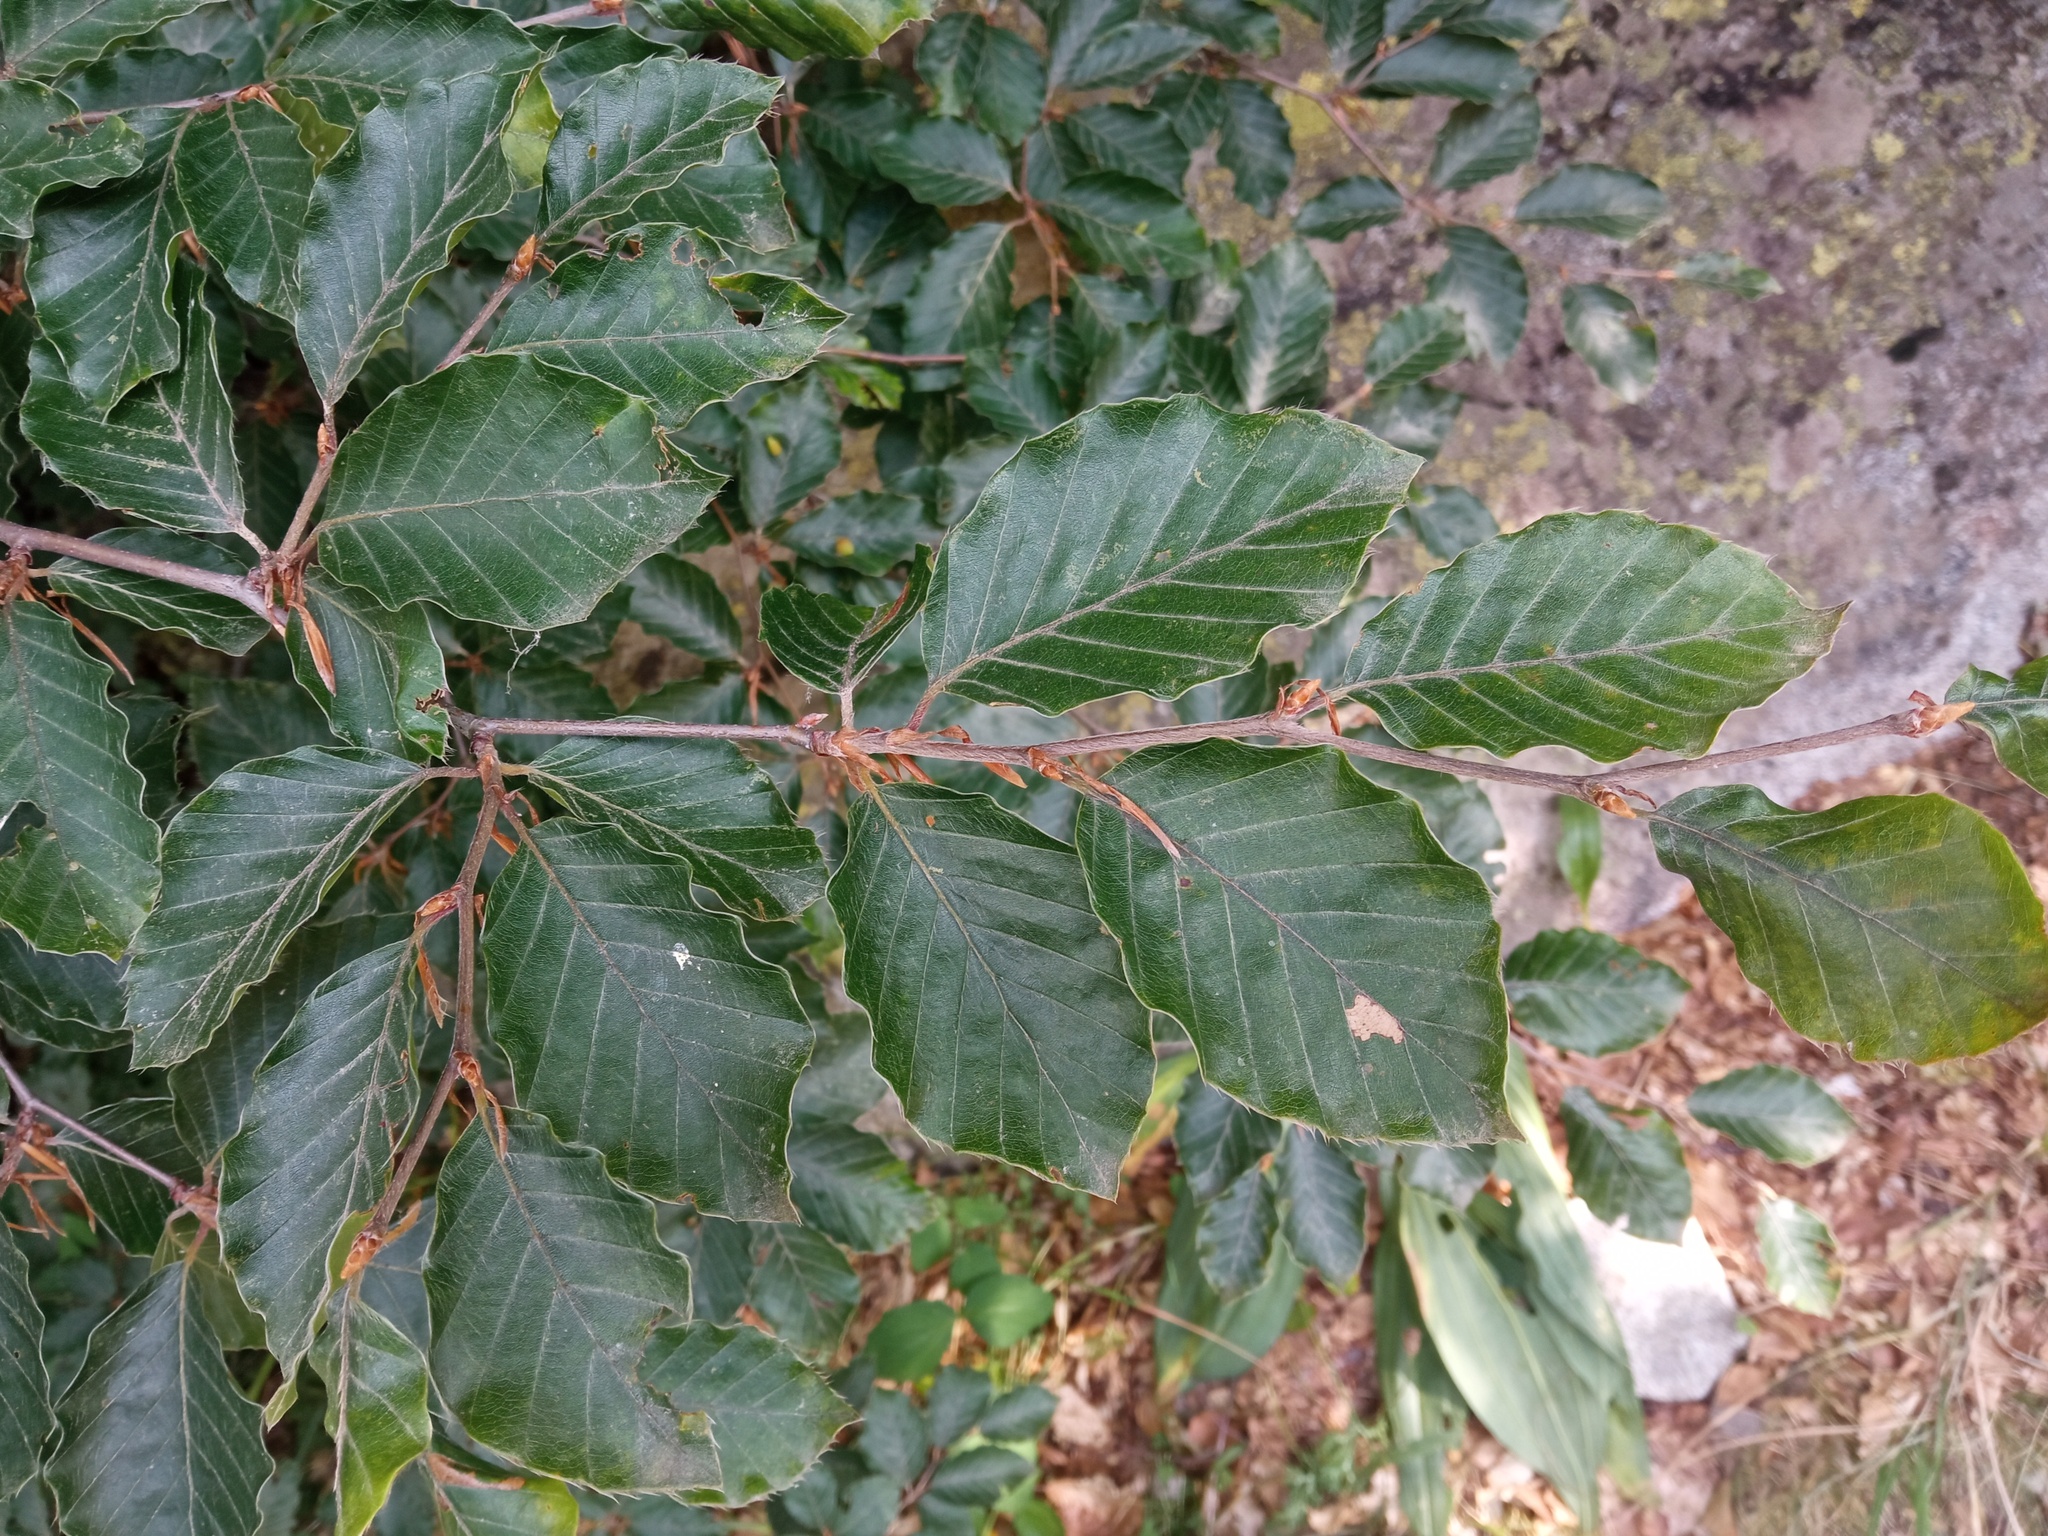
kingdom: Plantae
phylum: Tracheophyta
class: Magnoliopsida
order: Fagales
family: Fagaceae
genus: Fagus
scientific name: Fagus sylvatica
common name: Beech
